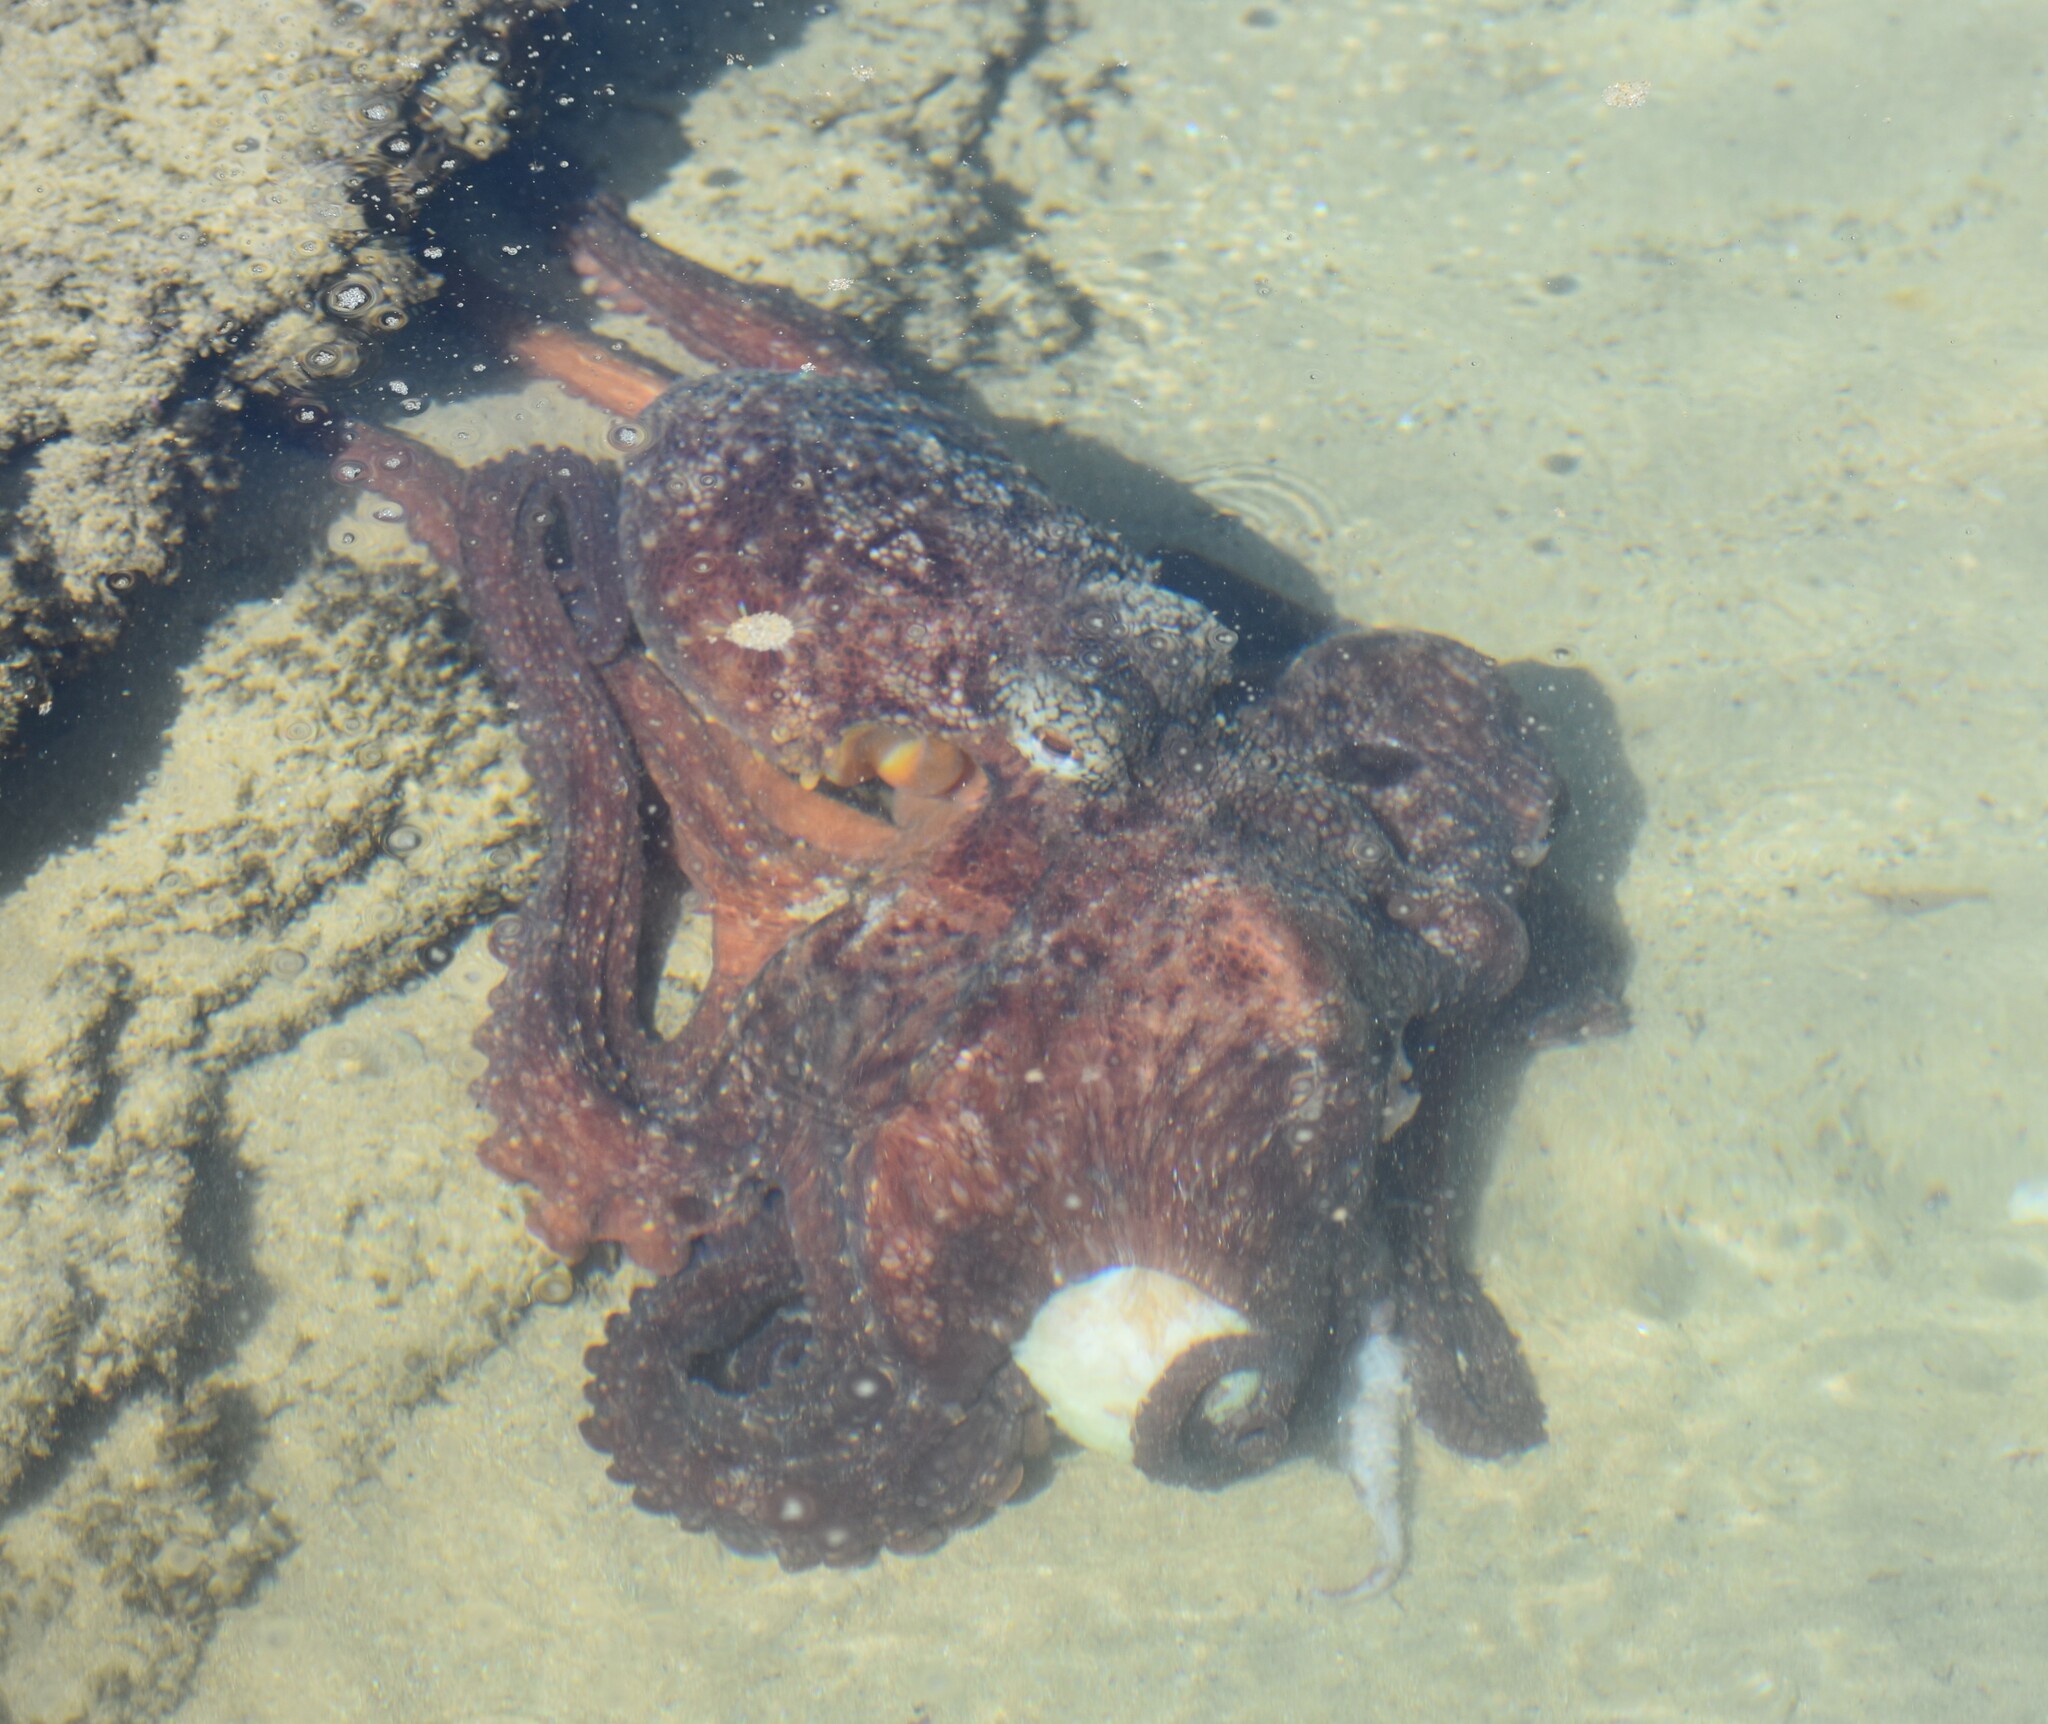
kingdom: Animalia
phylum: Mollusca
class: Cephalopoda
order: Octopoda
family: Octopodidae
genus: Octopus
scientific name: Octopus vulgaris
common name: Common octopus
